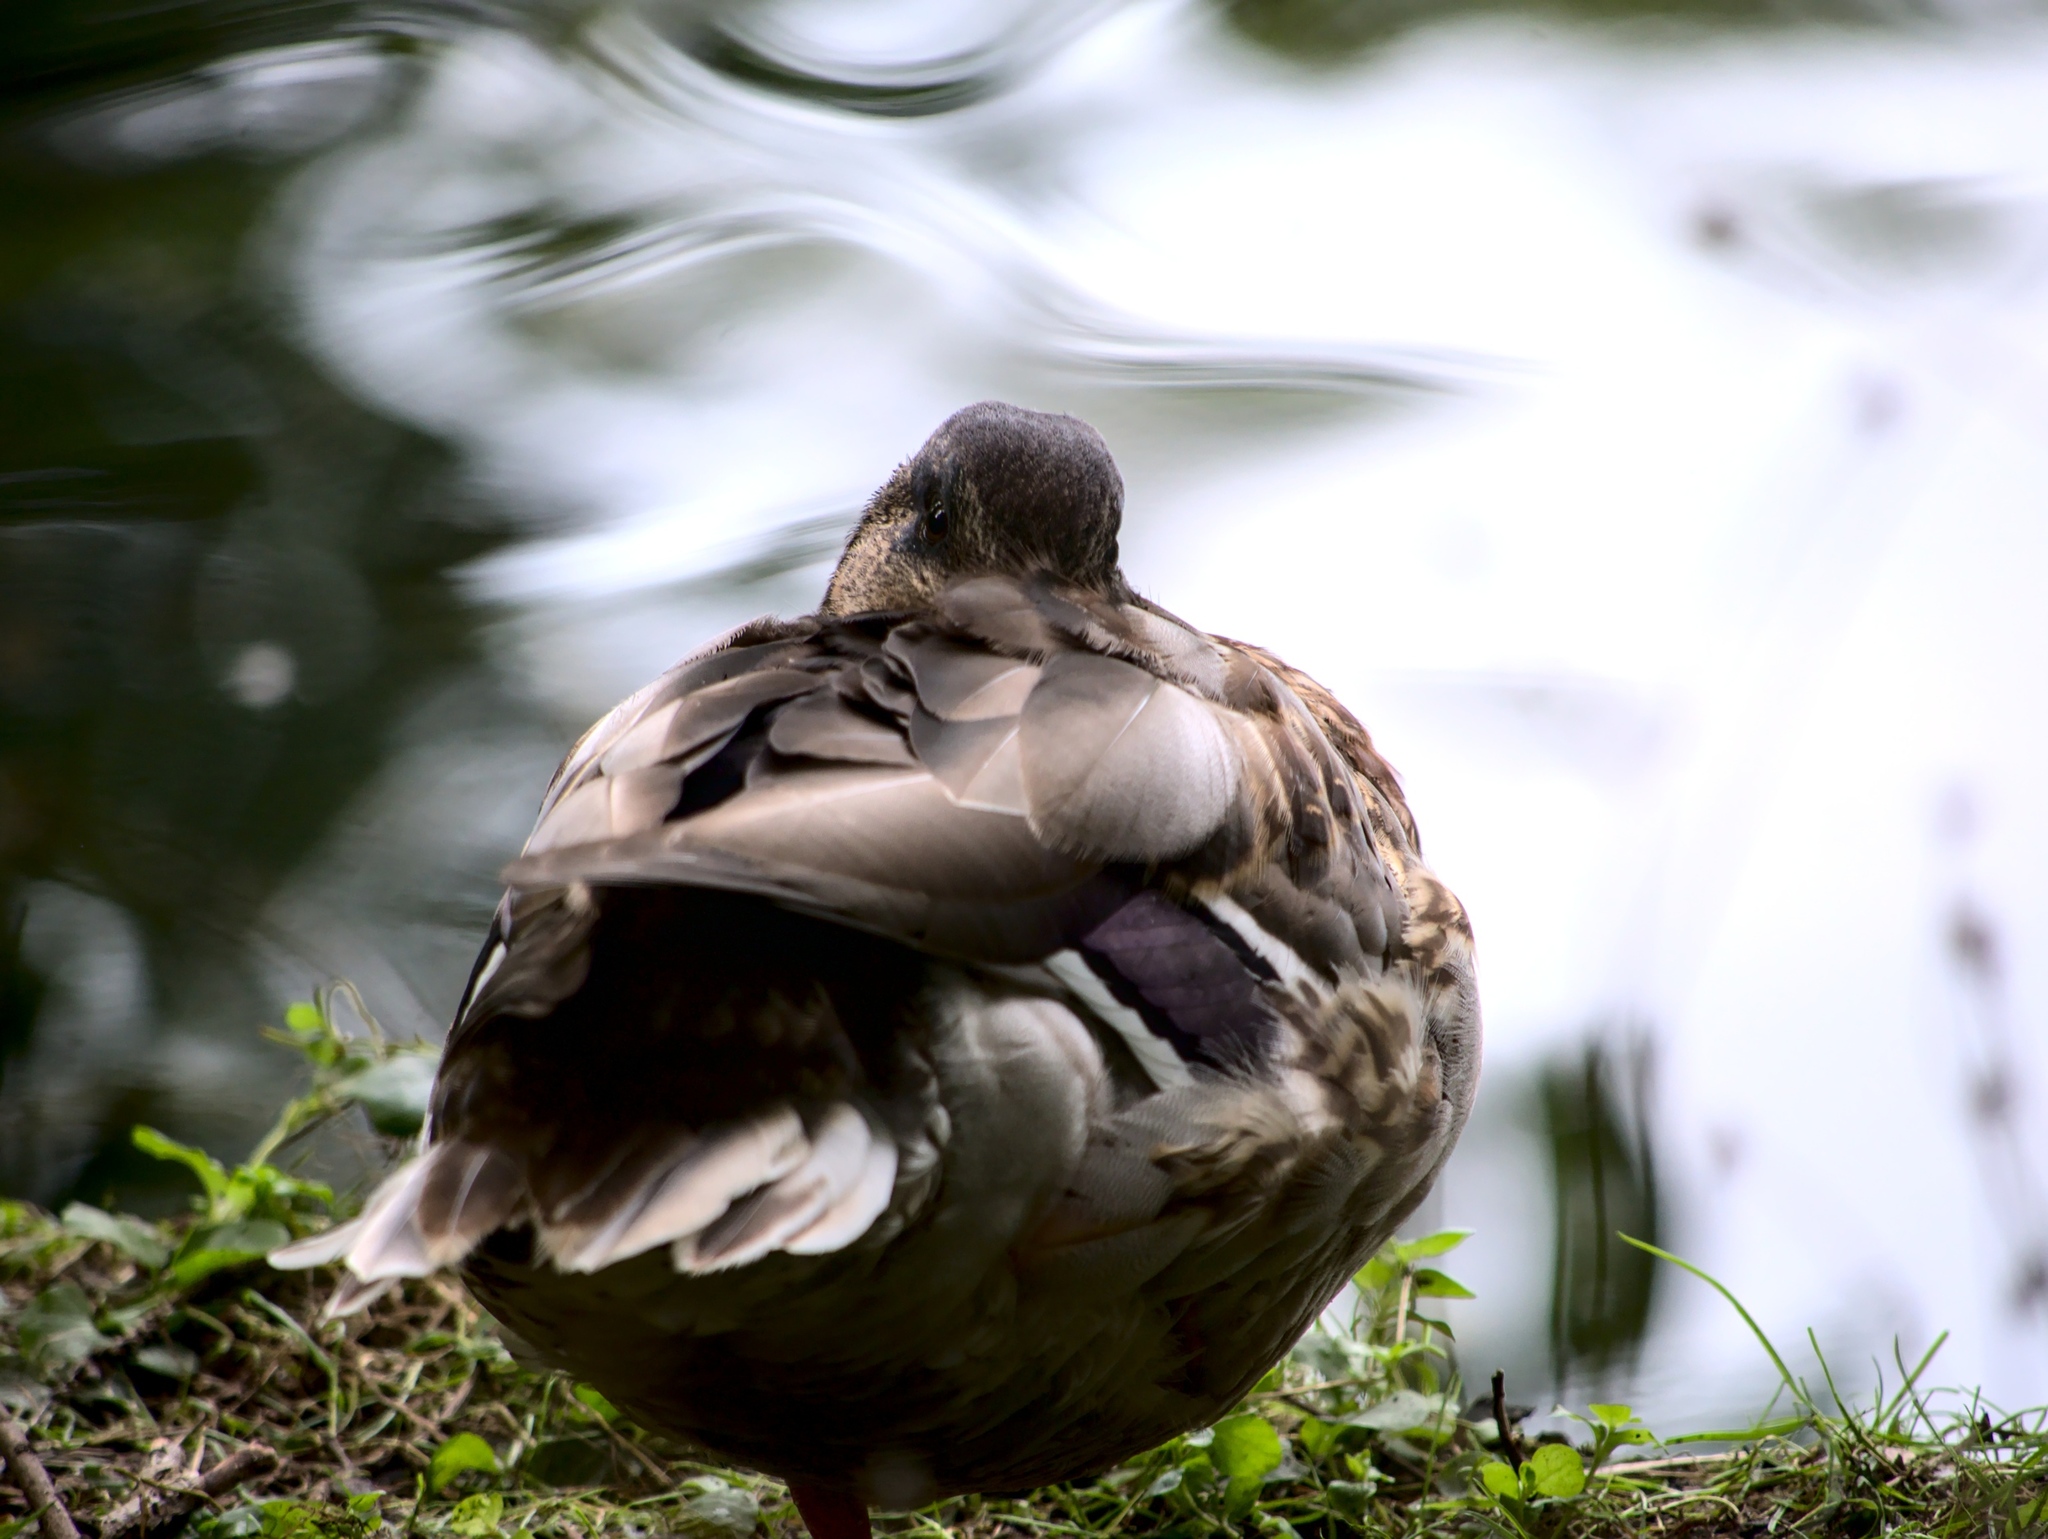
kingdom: Animalia
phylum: Chordata
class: Aves
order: Anseriformes
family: Anatidae
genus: Anas
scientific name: Anas platyrhynchos
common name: Mallard
